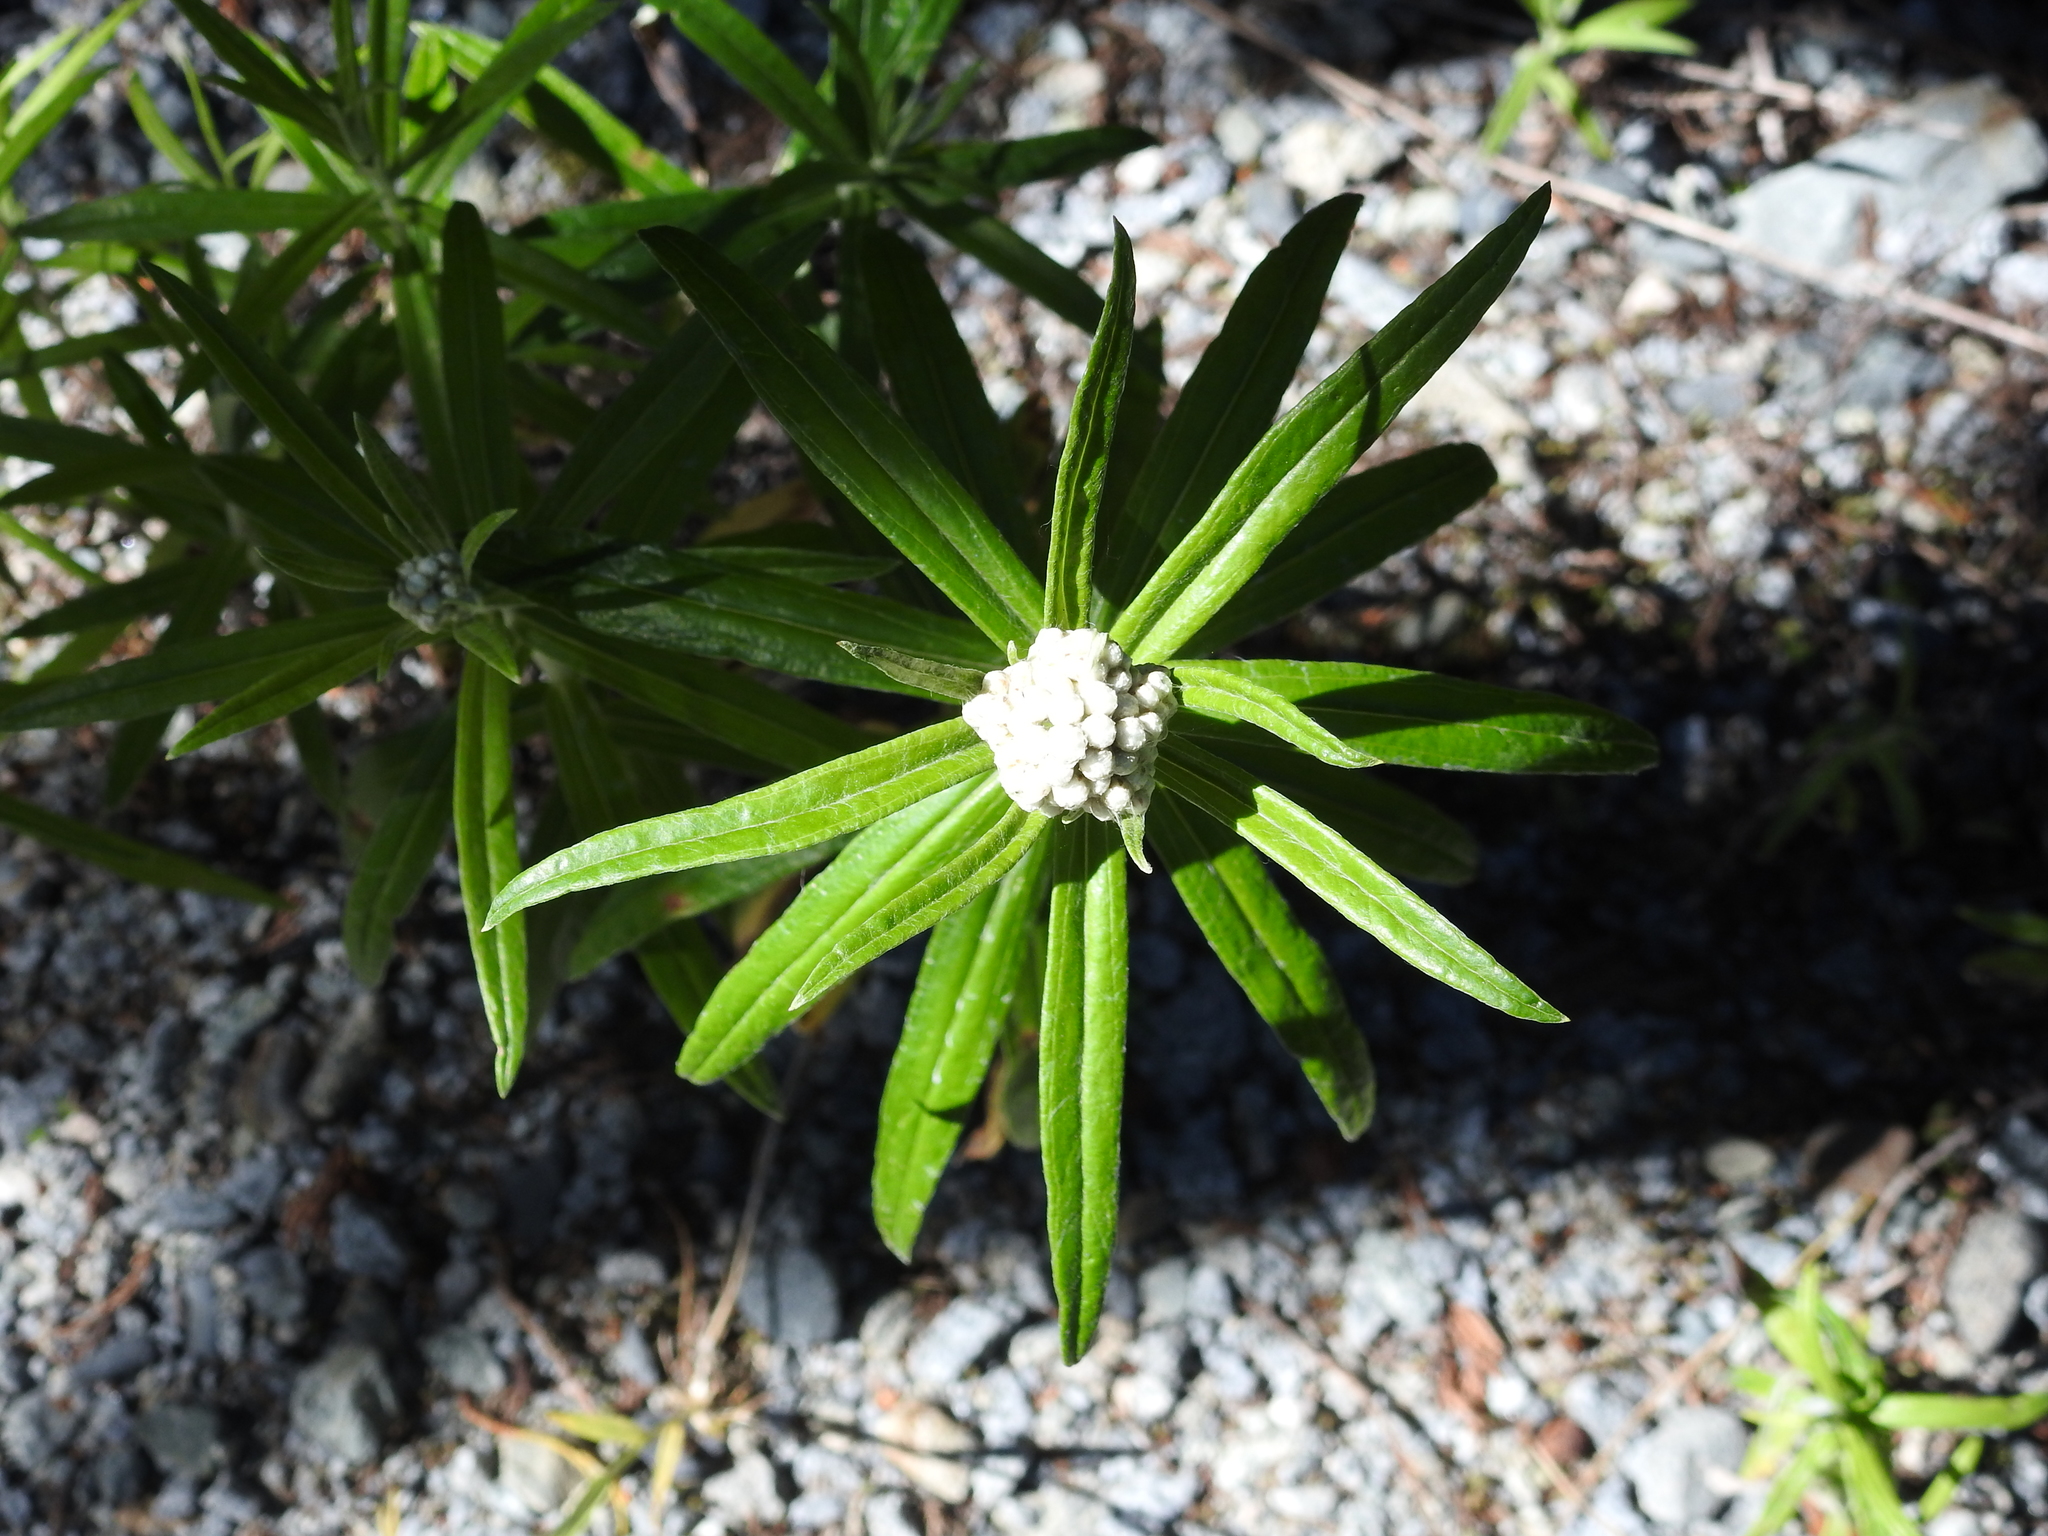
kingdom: Plantae
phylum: Tracheophyta
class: Magnoliopsida
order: Asterales
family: Asteraceae
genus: Anaphalis
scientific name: Anaphalis margaritacea
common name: Pearly everlasting
